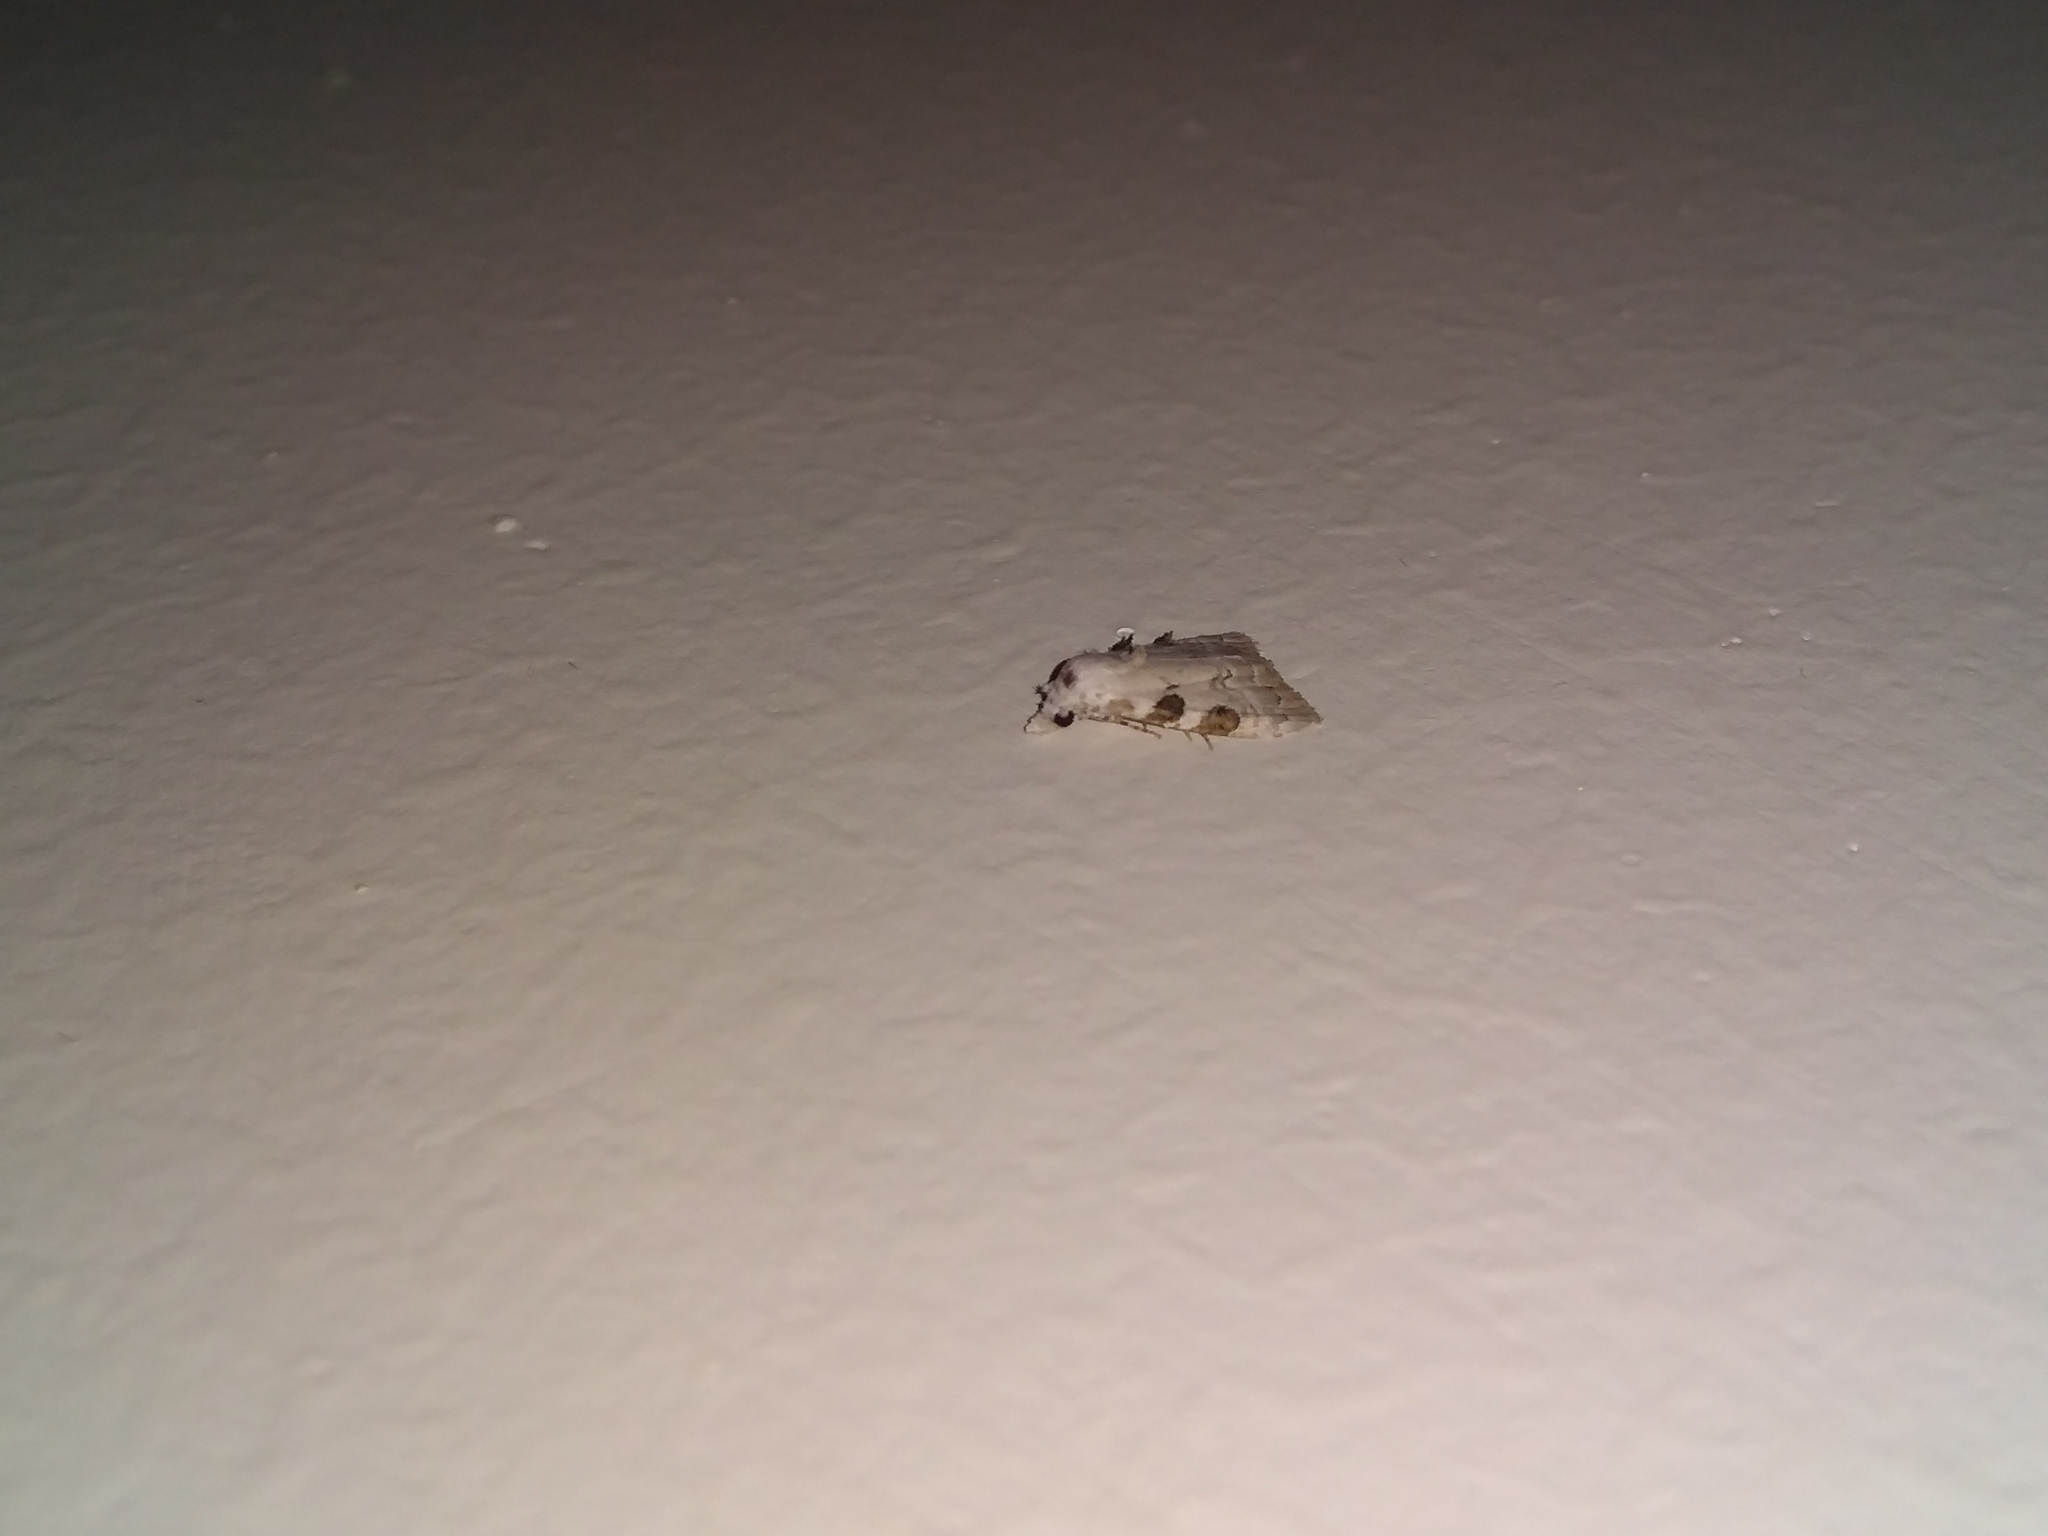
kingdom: Animalia
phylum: Arthropoda
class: Insecta
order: Lepidoptera
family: Nolidae
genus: Nola
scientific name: Nola analis
